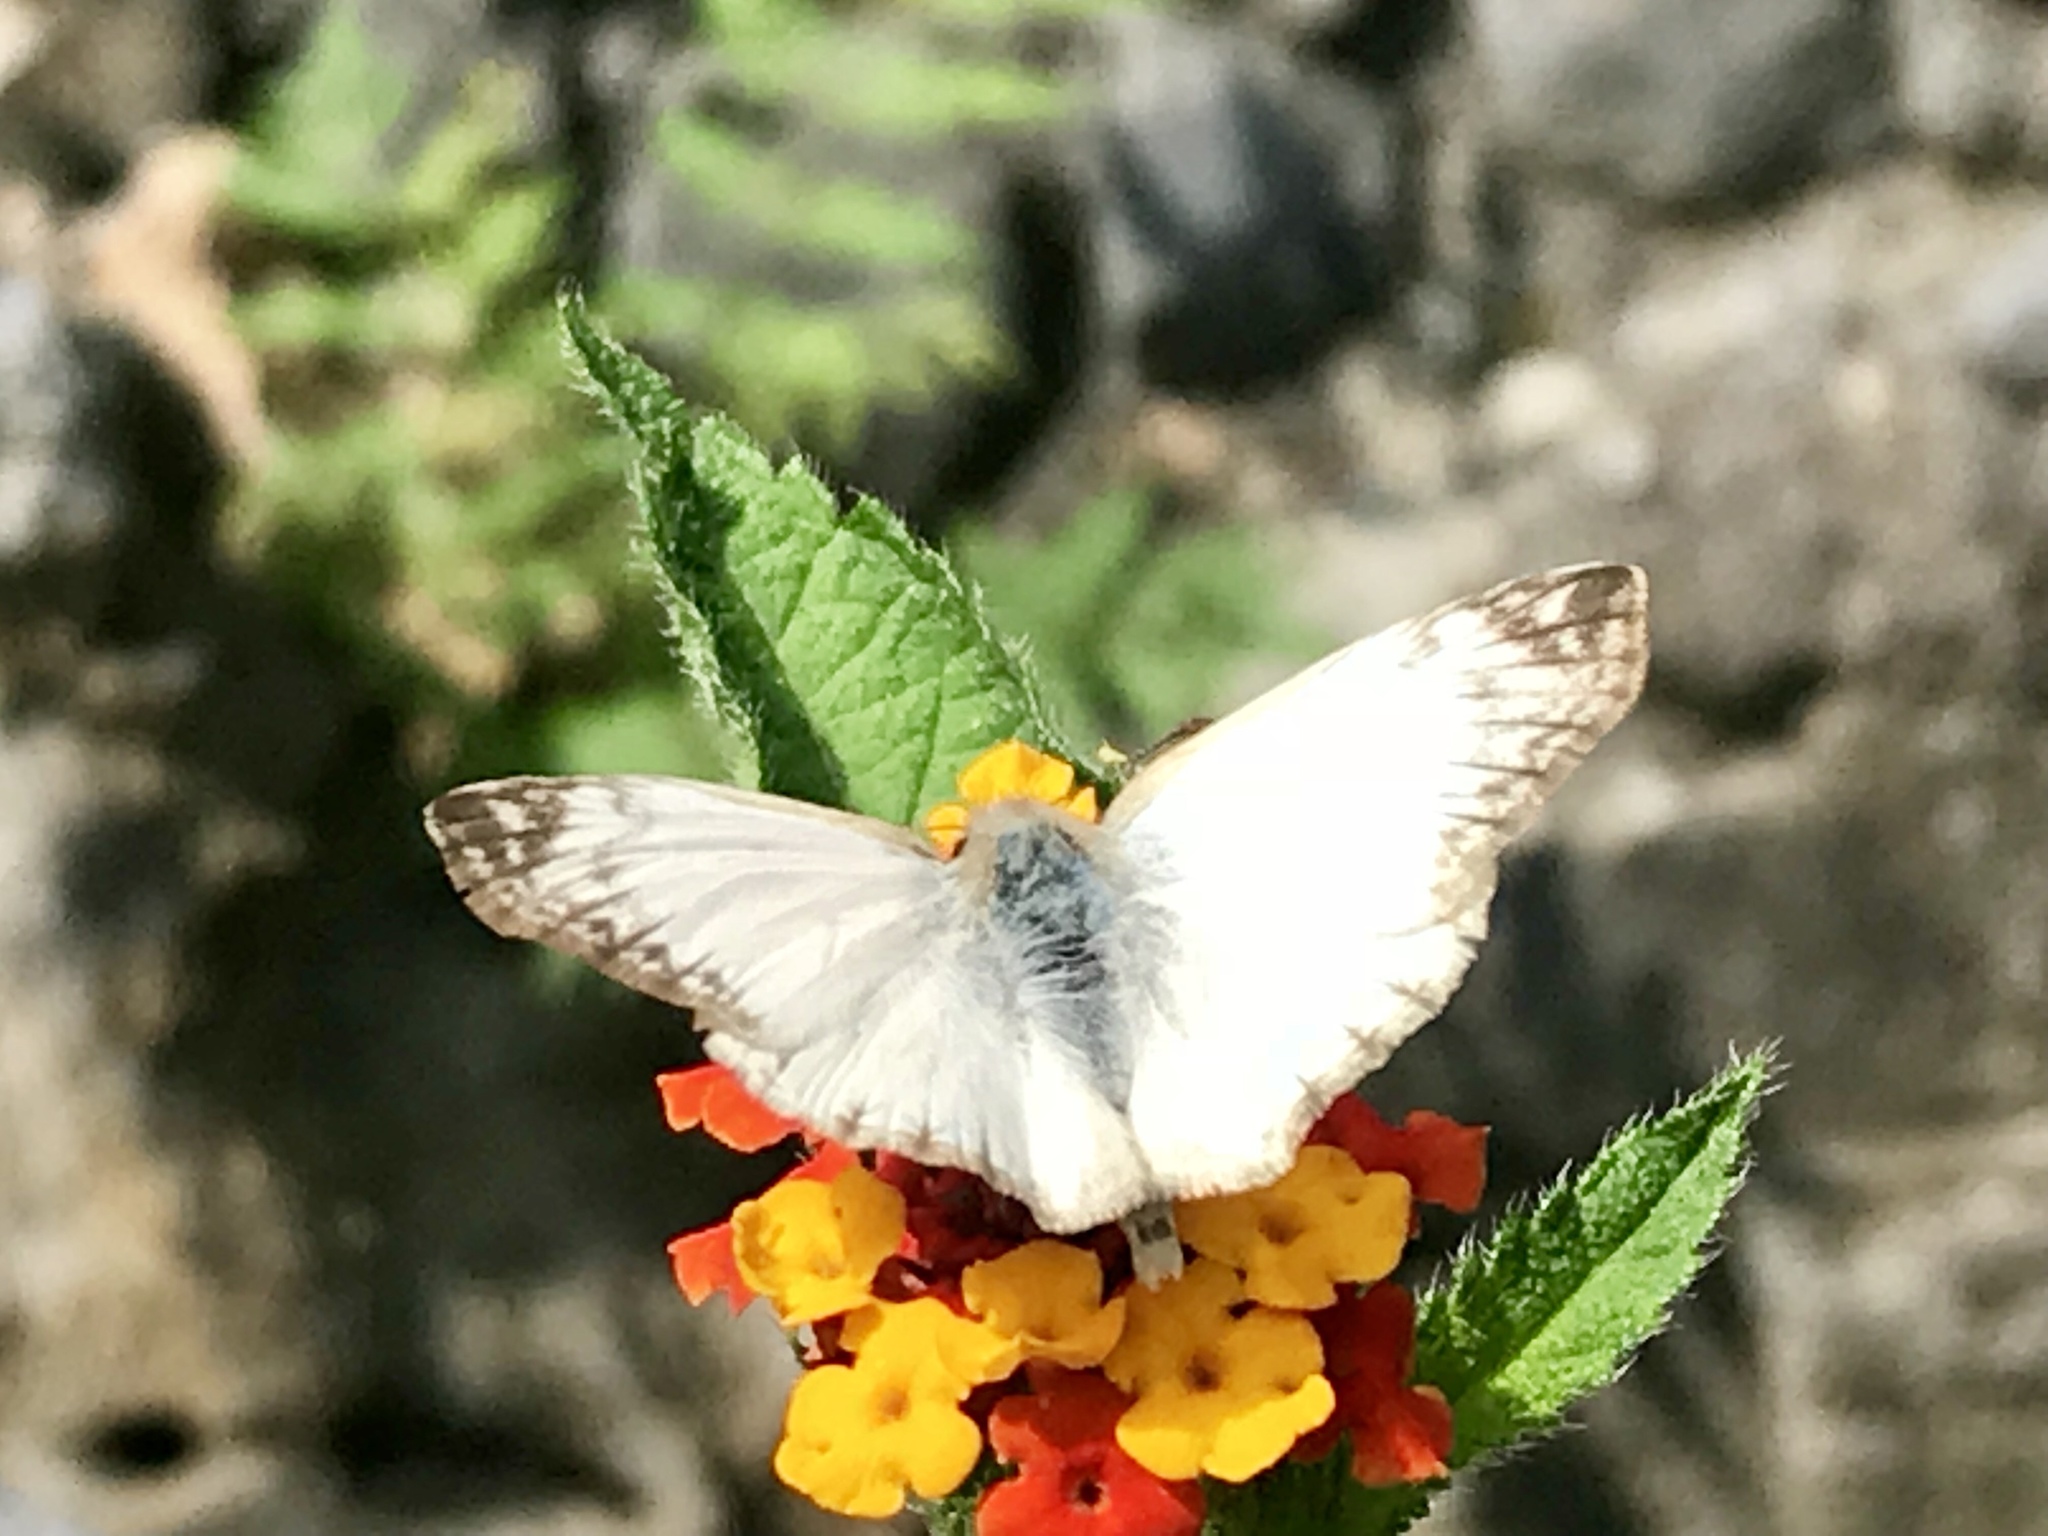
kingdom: Animalia
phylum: Arthropoda
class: Insecta
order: Lepidoptera
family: Hesperiidae
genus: Heliopetes
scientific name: Heliopetes laviana
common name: Laviana white-skipper
